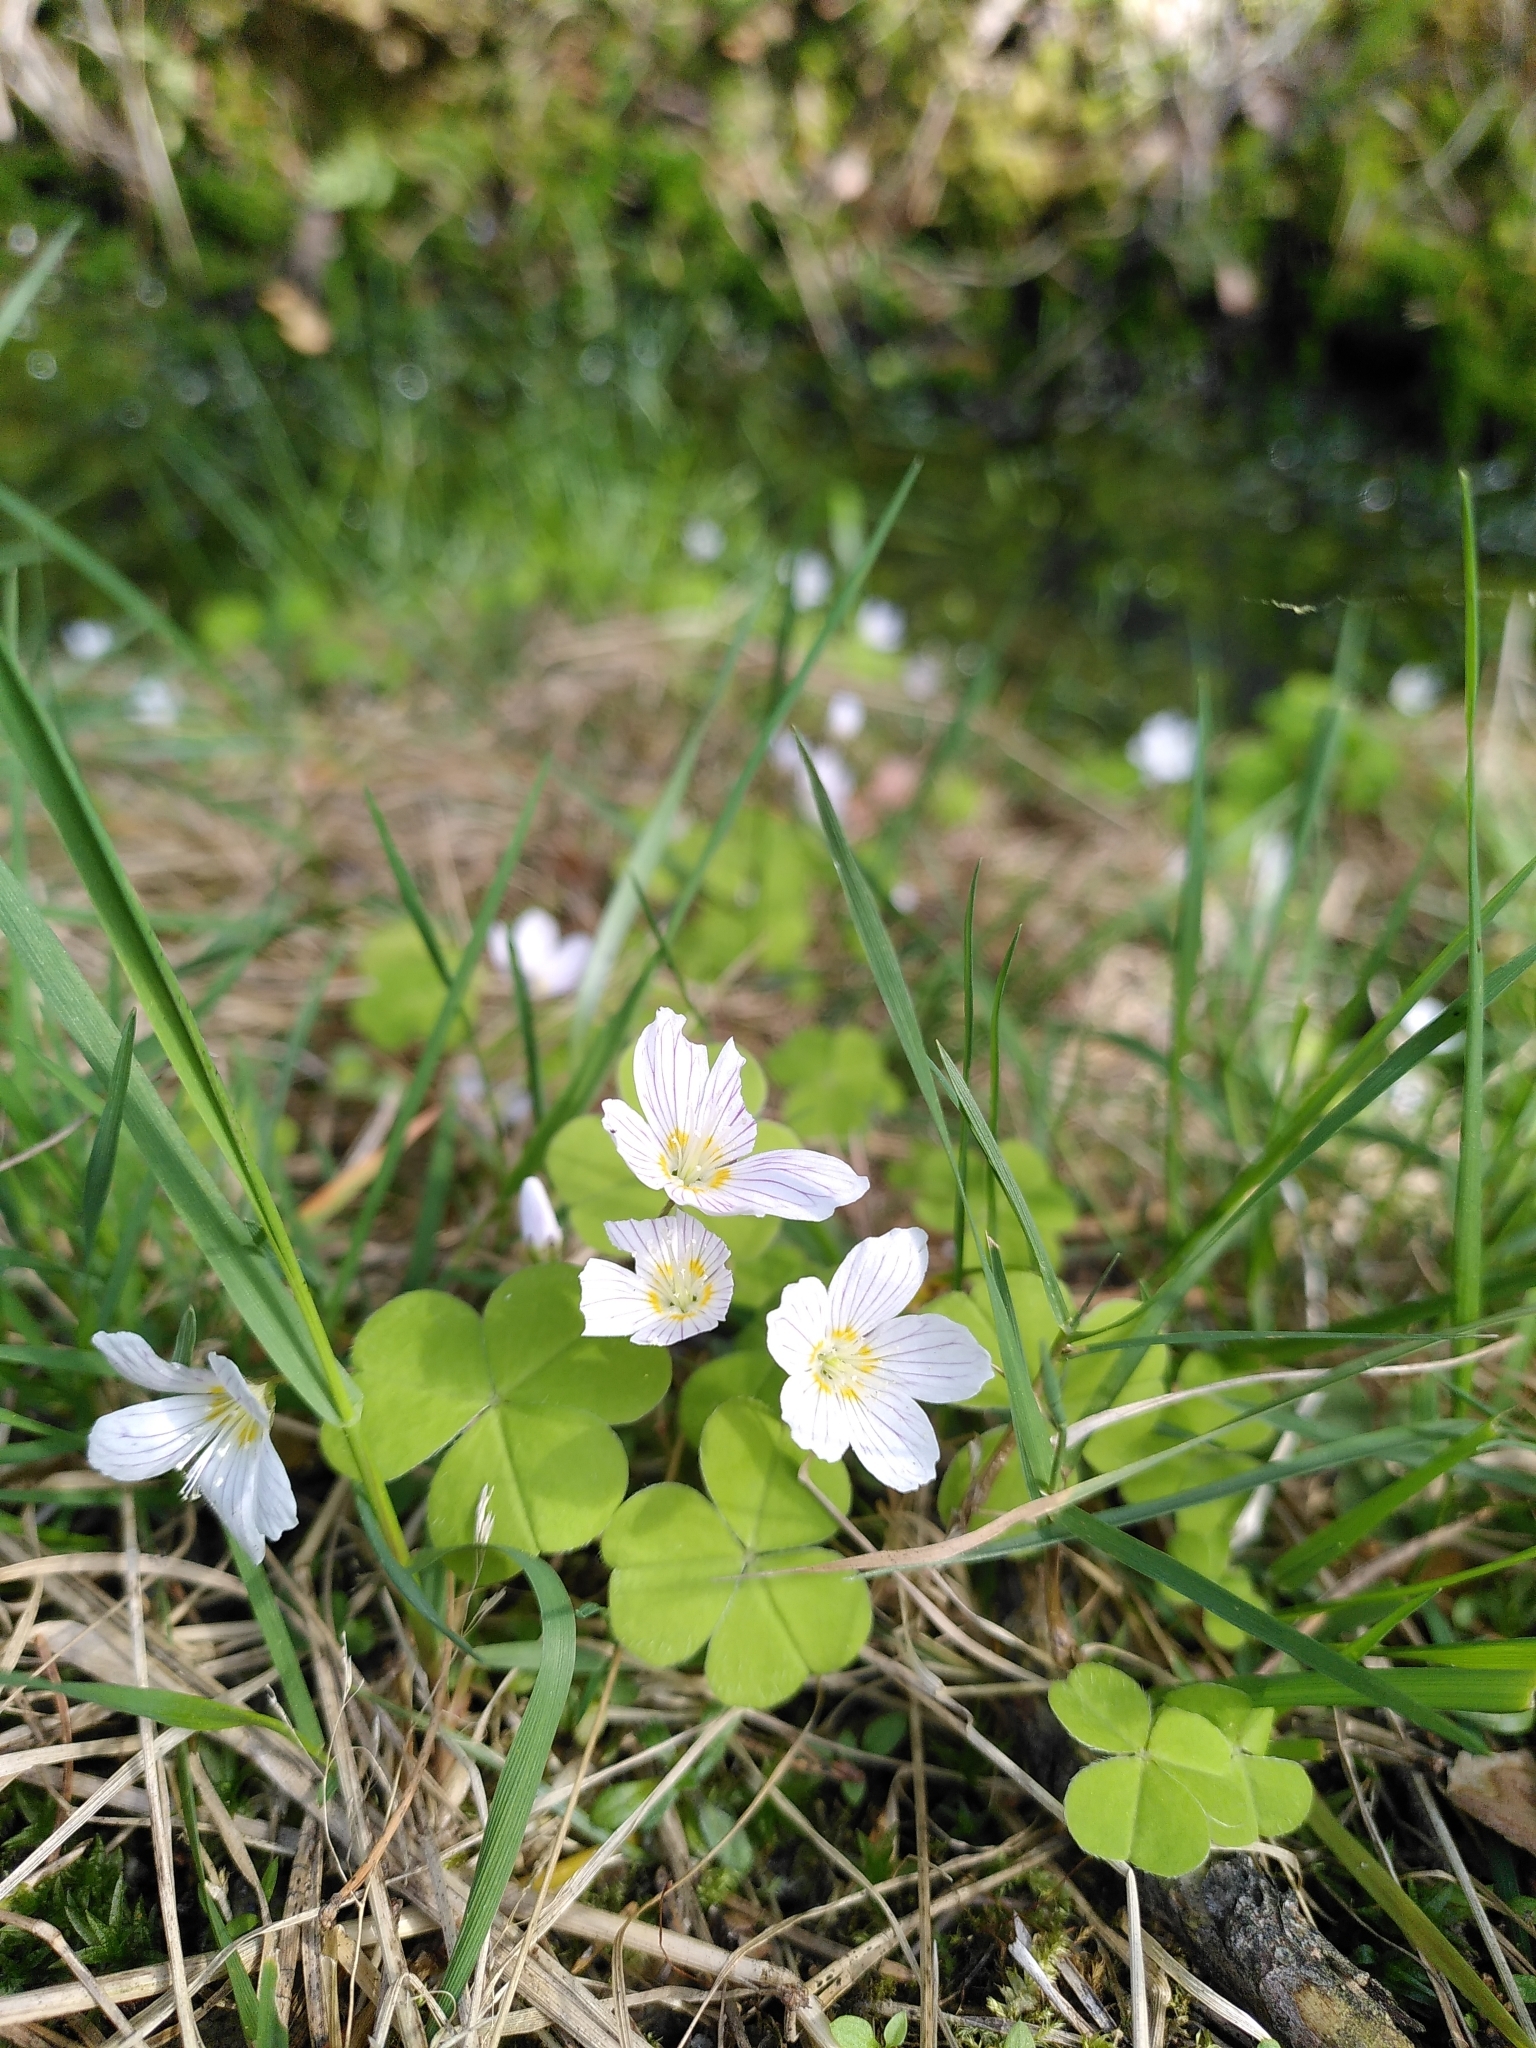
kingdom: Plantae
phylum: Tracheophyta
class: Magnoliopsida
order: Oxalidales
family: Oxalidaceae
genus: Oxalis
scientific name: Oxalis acetosella
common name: Wood-sorrel
